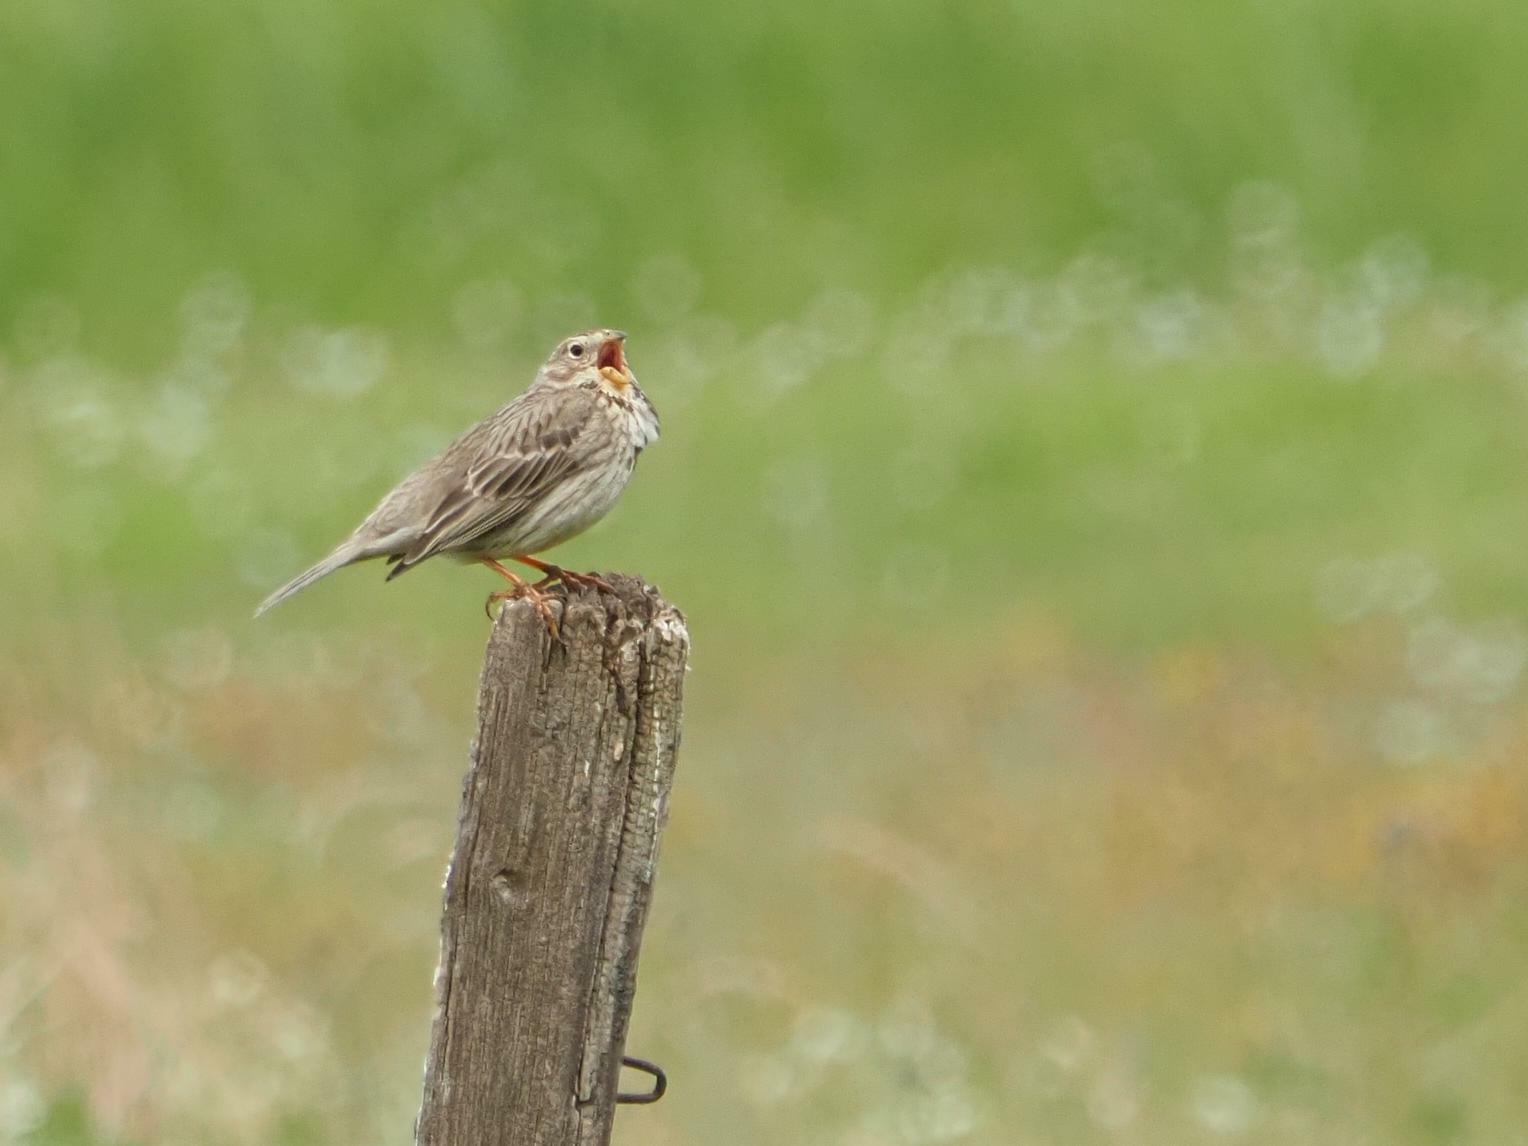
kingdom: Animalia
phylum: Chordata
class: Aves
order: Passeriformes
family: Emberizidae
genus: Emberiza
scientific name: Emberiza calandra
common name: Corn bunting
